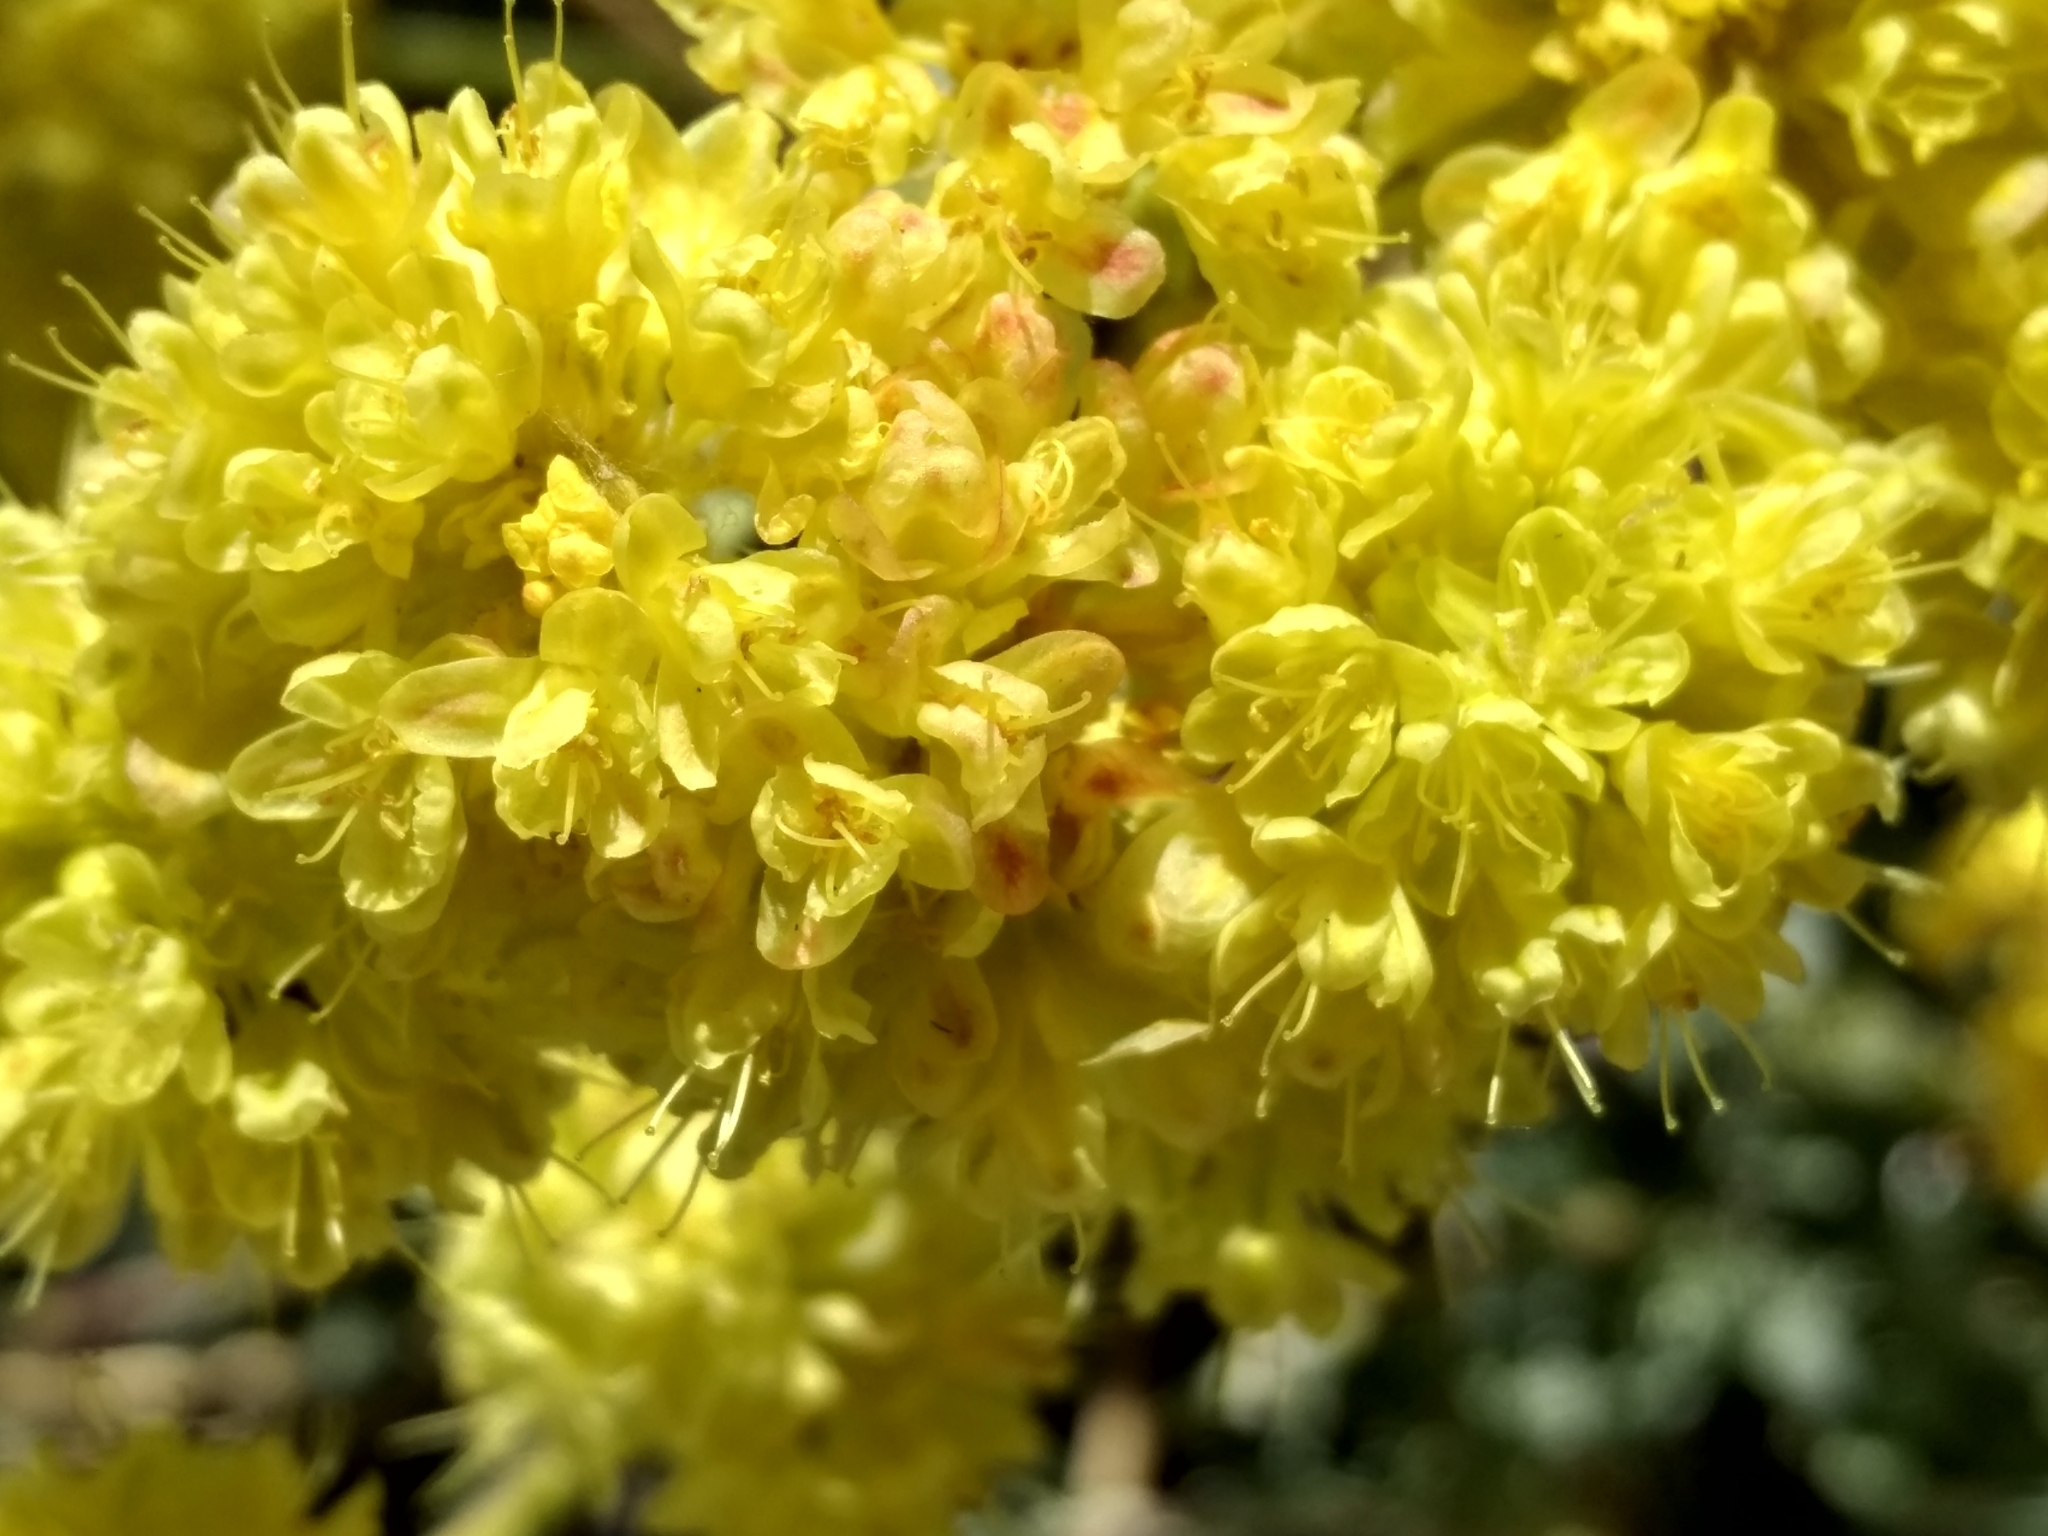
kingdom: Plantae
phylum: Tracheophyta
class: Magnoliopsida
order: Caryophyllales
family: Polygonaceae
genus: Eriogonum
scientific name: Eriogonum umbellatum
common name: Sulfur-buckwheat
